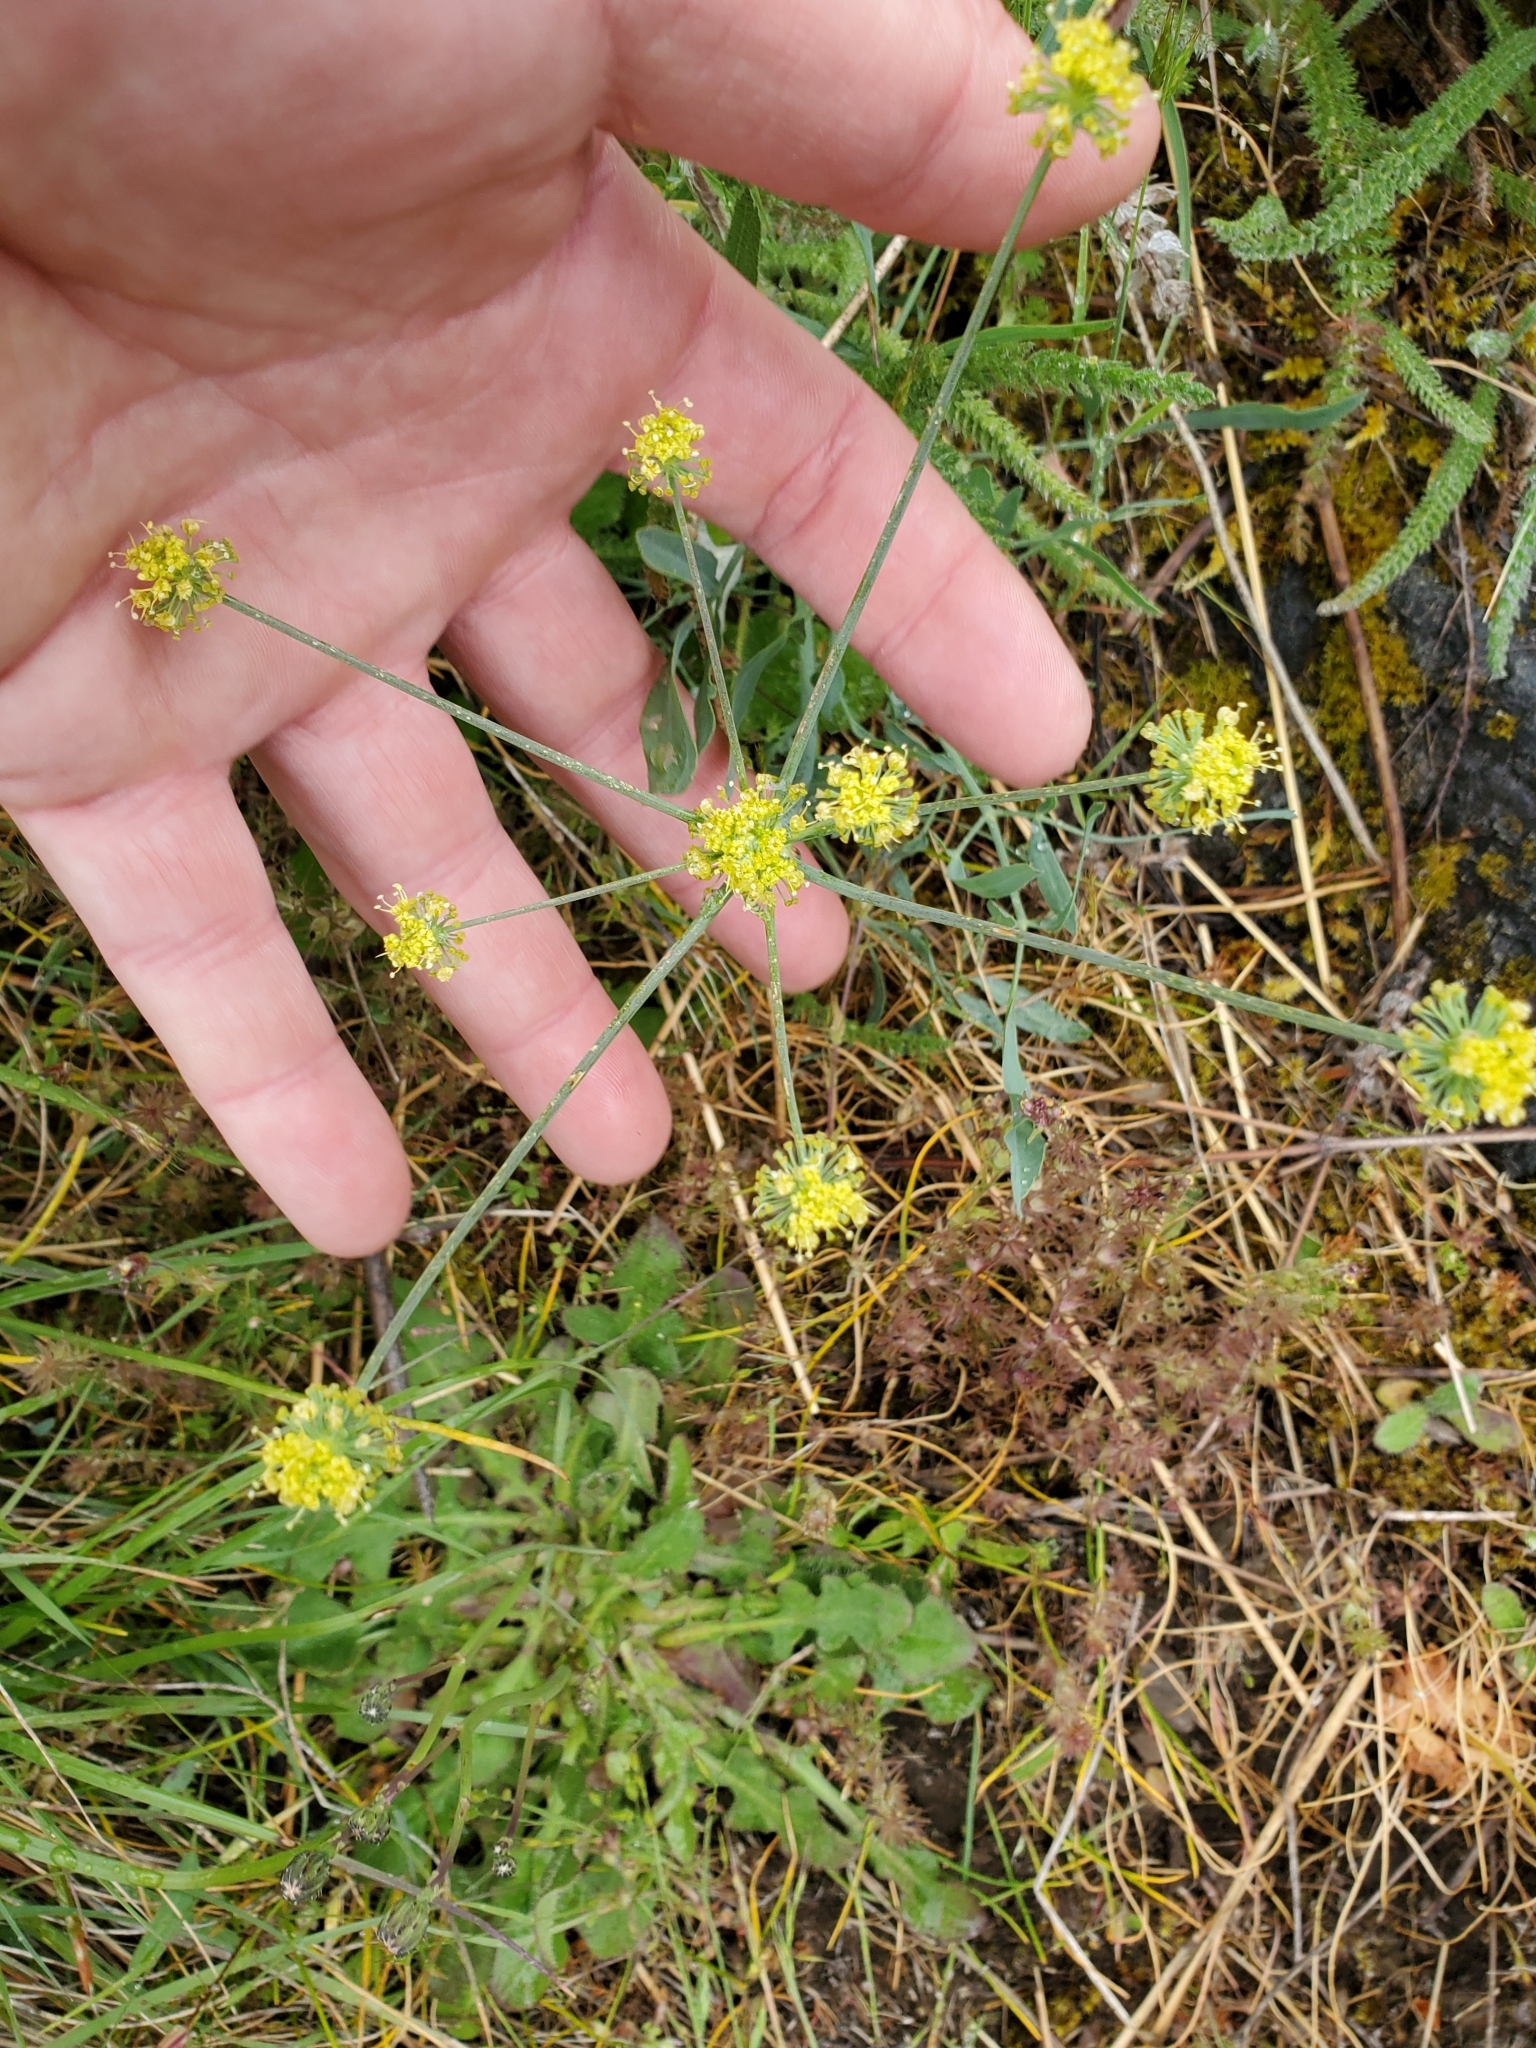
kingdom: Plantae
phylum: Tracheophyta
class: Magnoliopsida
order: Apiales
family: Apiaceae
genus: Lomatium
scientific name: Lomatium nudicaule
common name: Pestle lomatium
